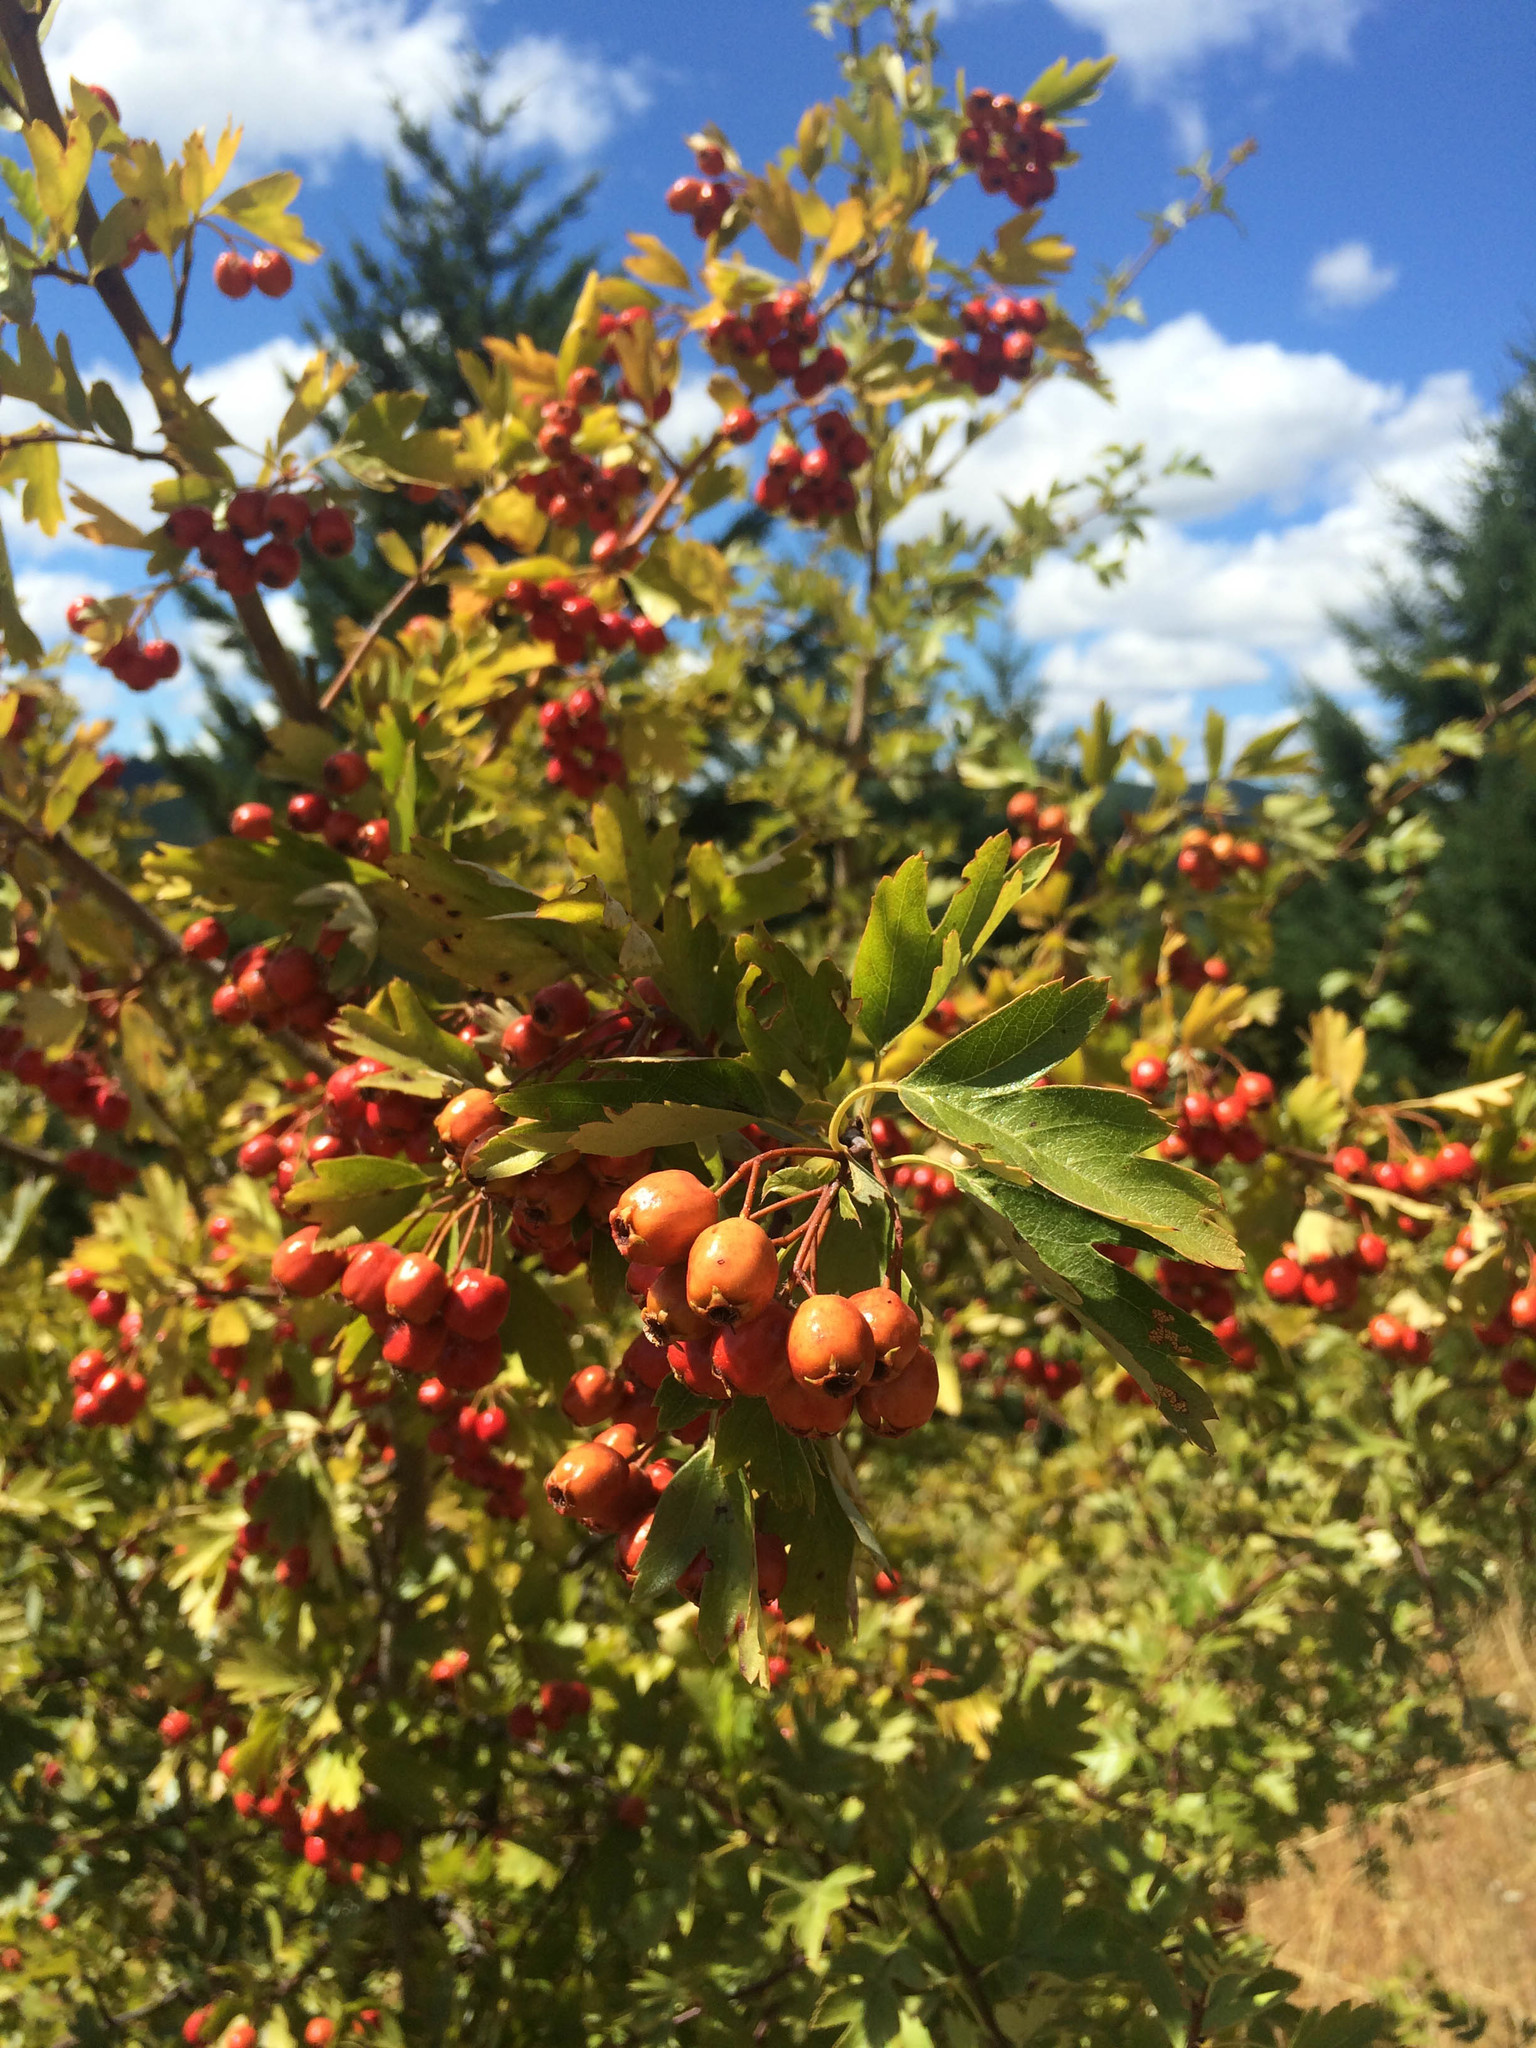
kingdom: Plantae
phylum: Tracheophyta
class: Magnoliopsida
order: Rosales
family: Rosaceae
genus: Crataegus
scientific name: Crataegus monogyna
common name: Hawthorn
